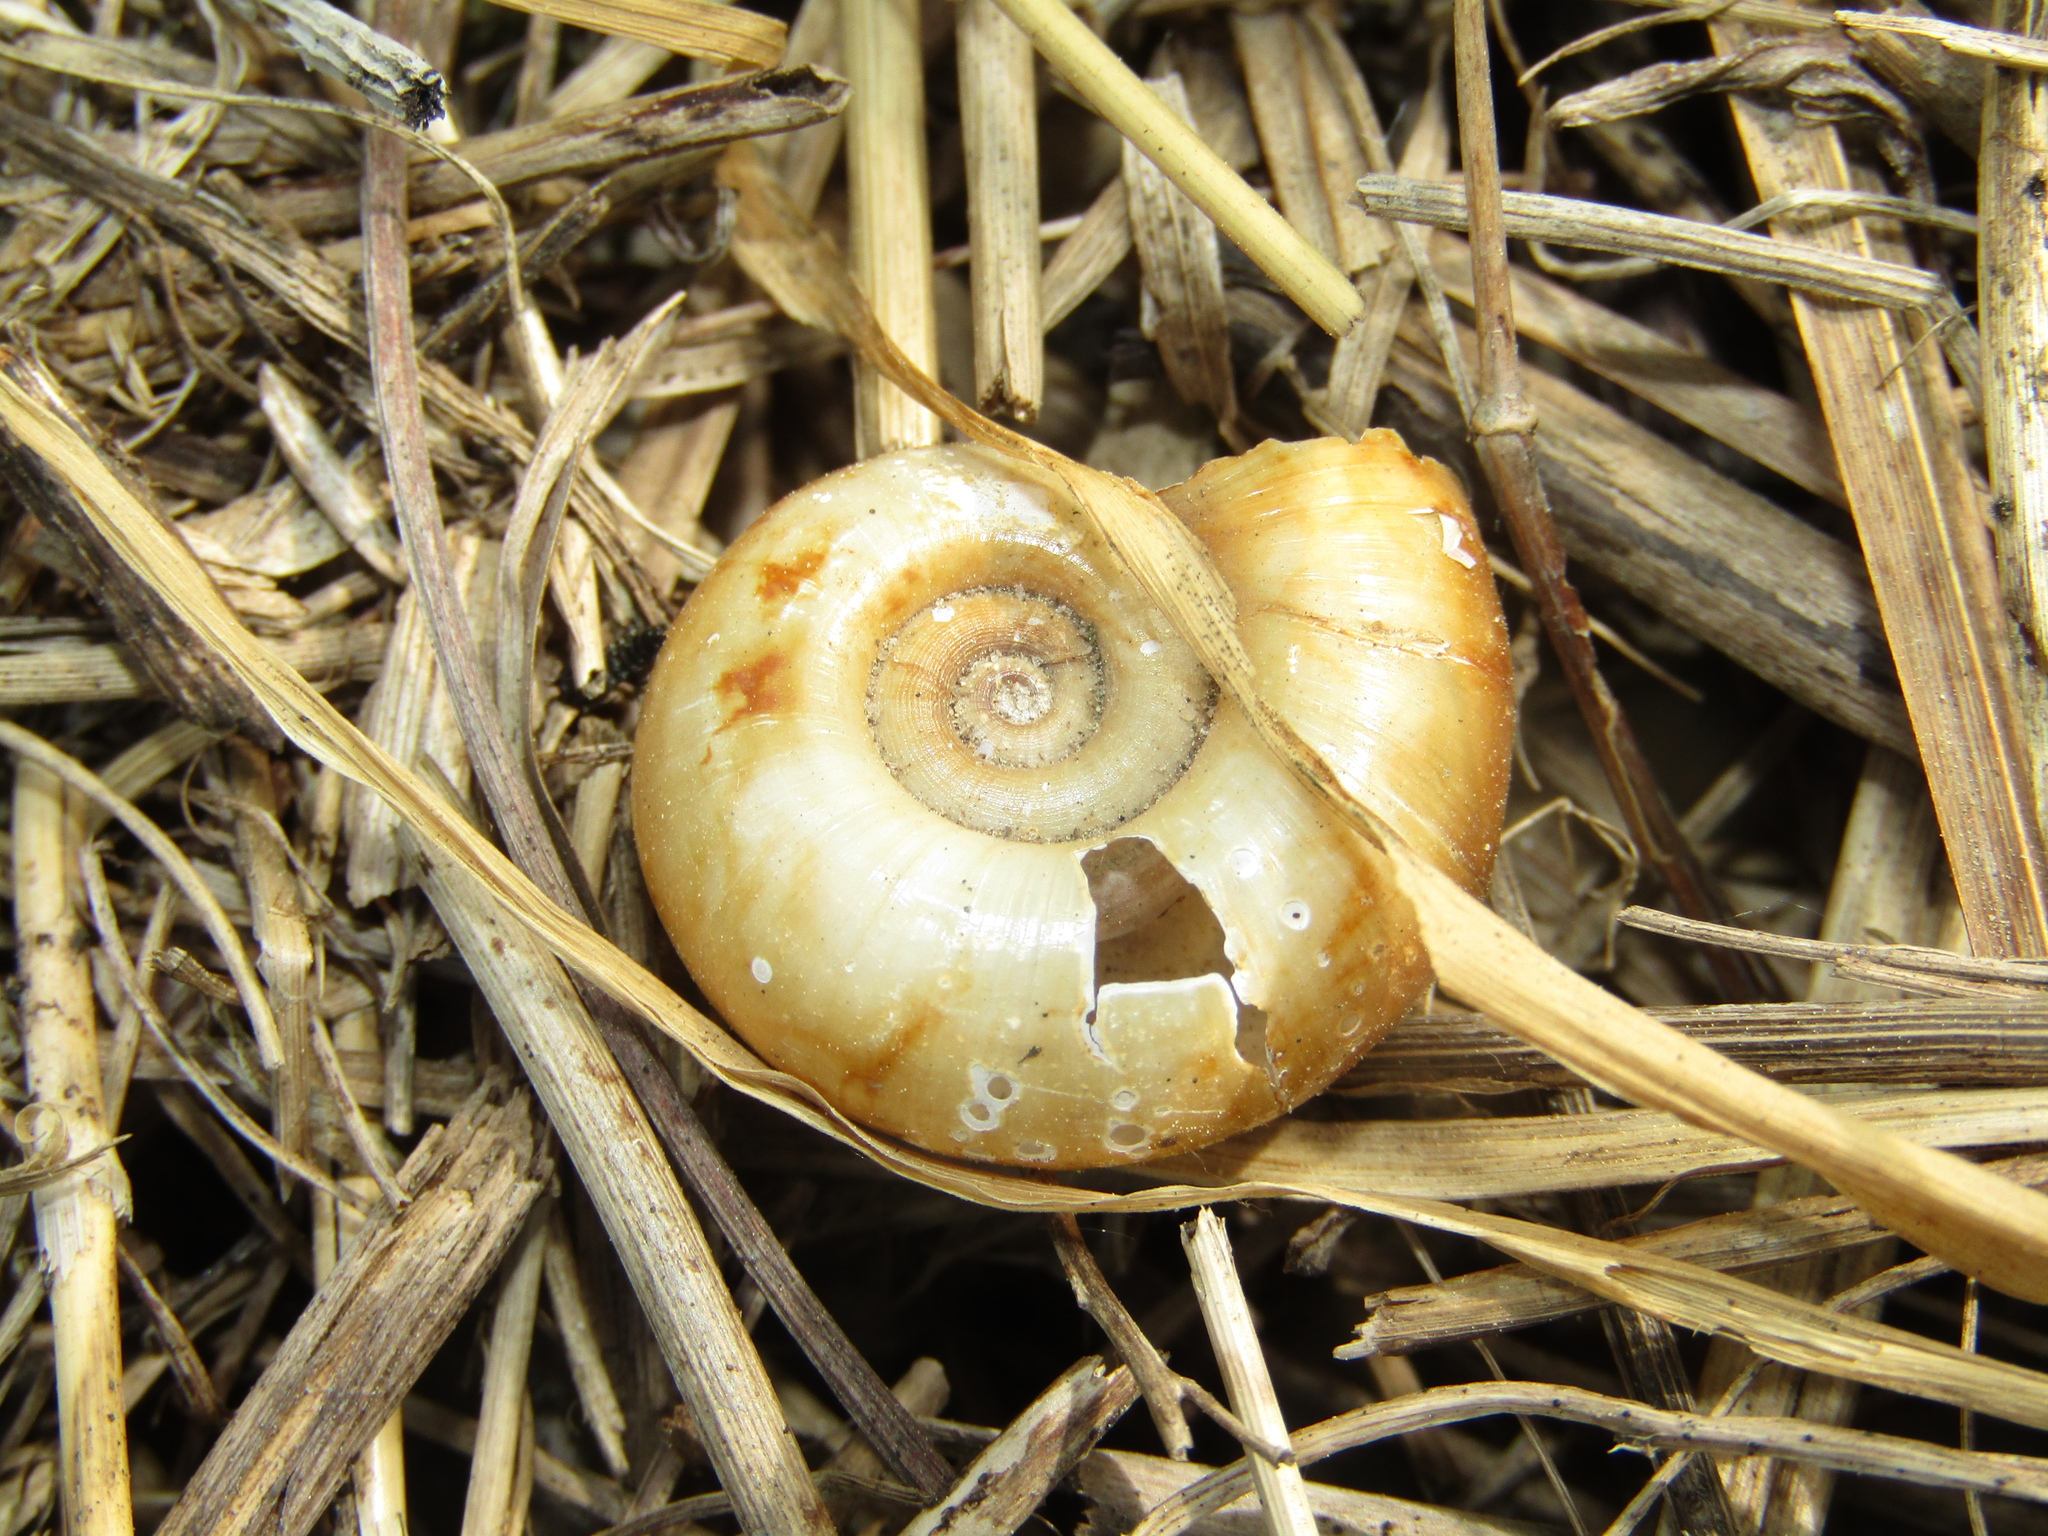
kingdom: Animalia
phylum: Mollusca
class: Gastropoda
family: Planorbidae
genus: Planorbarius
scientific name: Planorbarius corneus
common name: Great ramshorn
